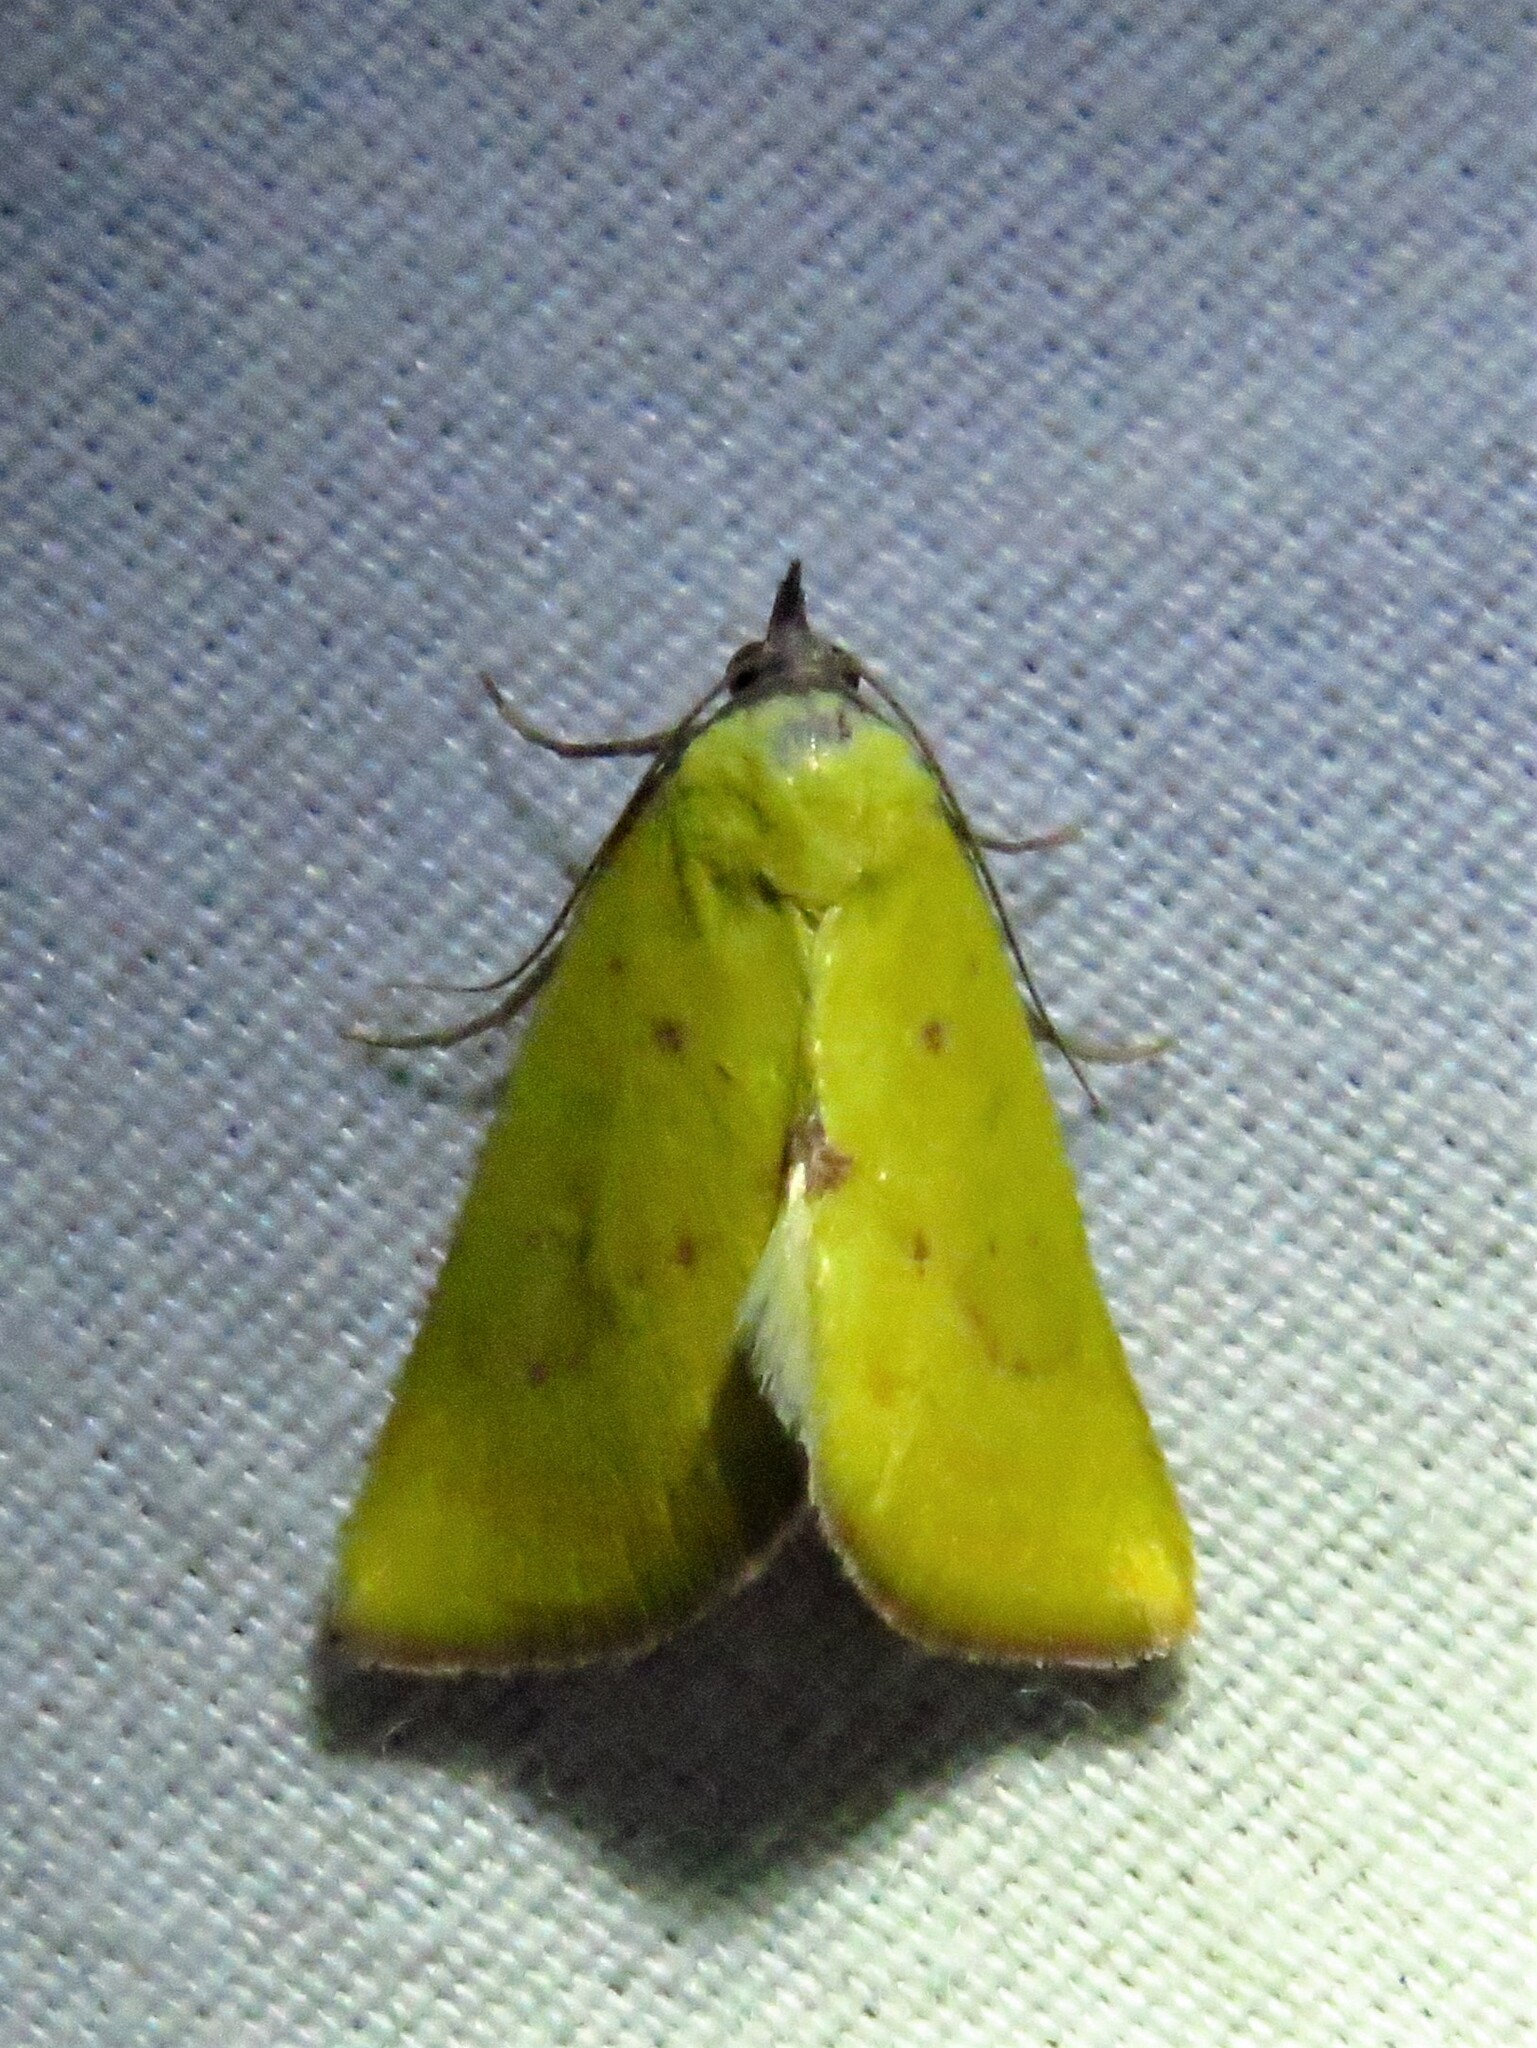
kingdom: Animalia
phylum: Arthropoda
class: Insecta
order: Lepidoptera
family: Erebidae
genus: Phytometra
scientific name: Phytometra orgiae
